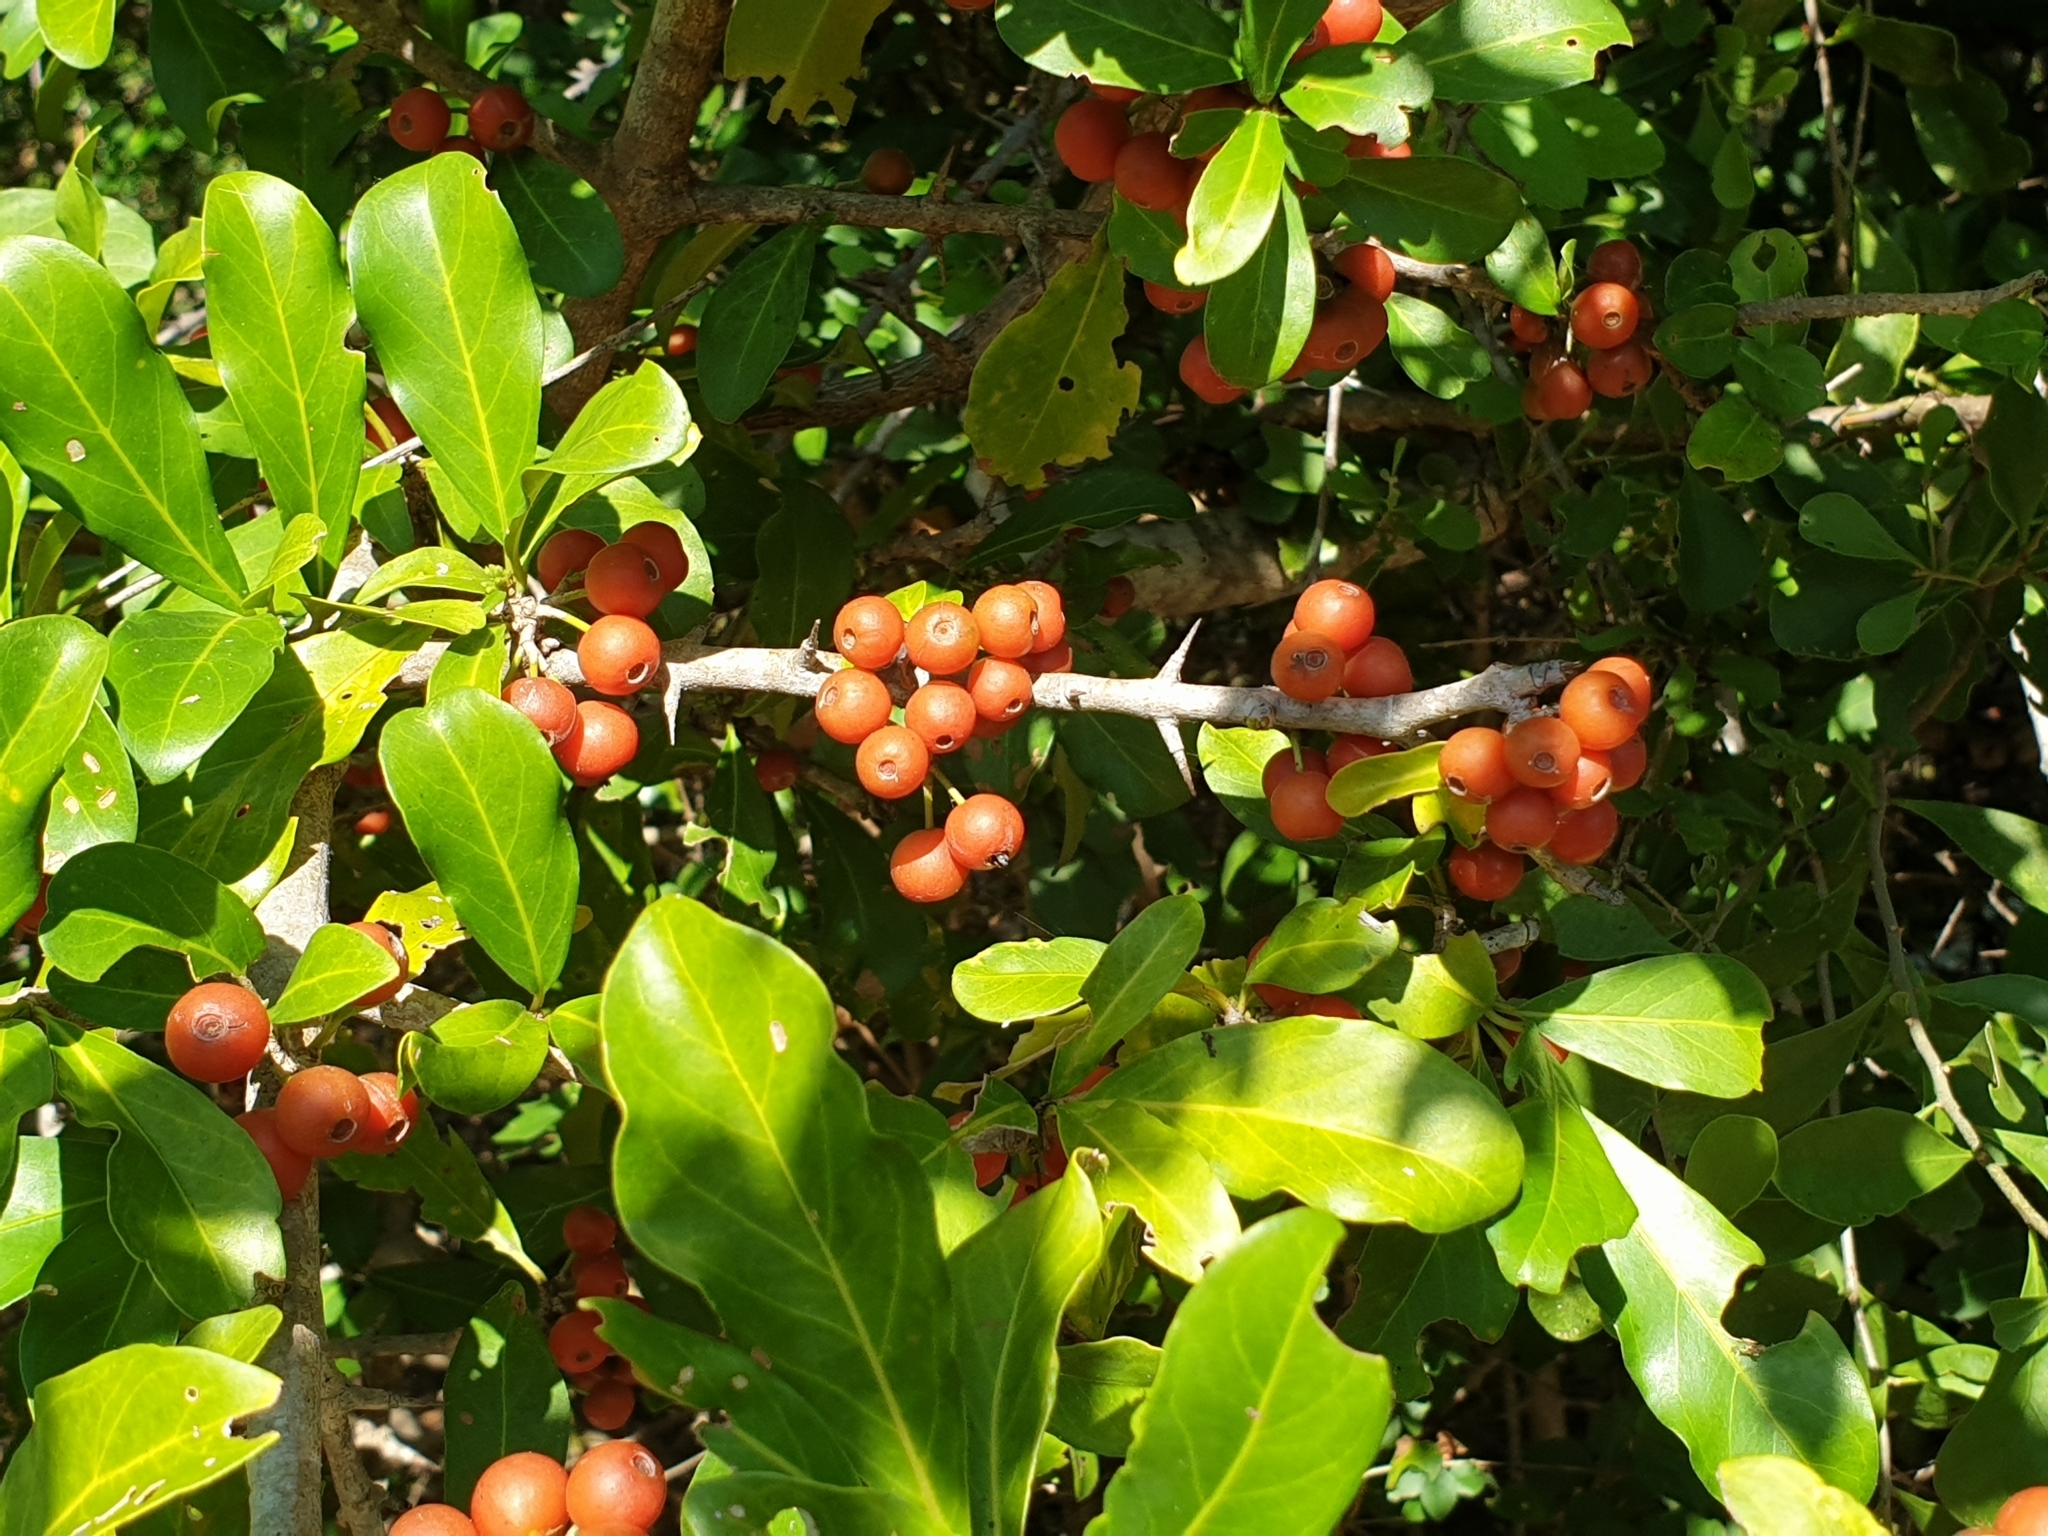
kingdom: Plantae
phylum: Tracheophyta
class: Magnoliopsida
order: Gentianales
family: Rubiaceae
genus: Benkara
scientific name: Benkara malabarica
